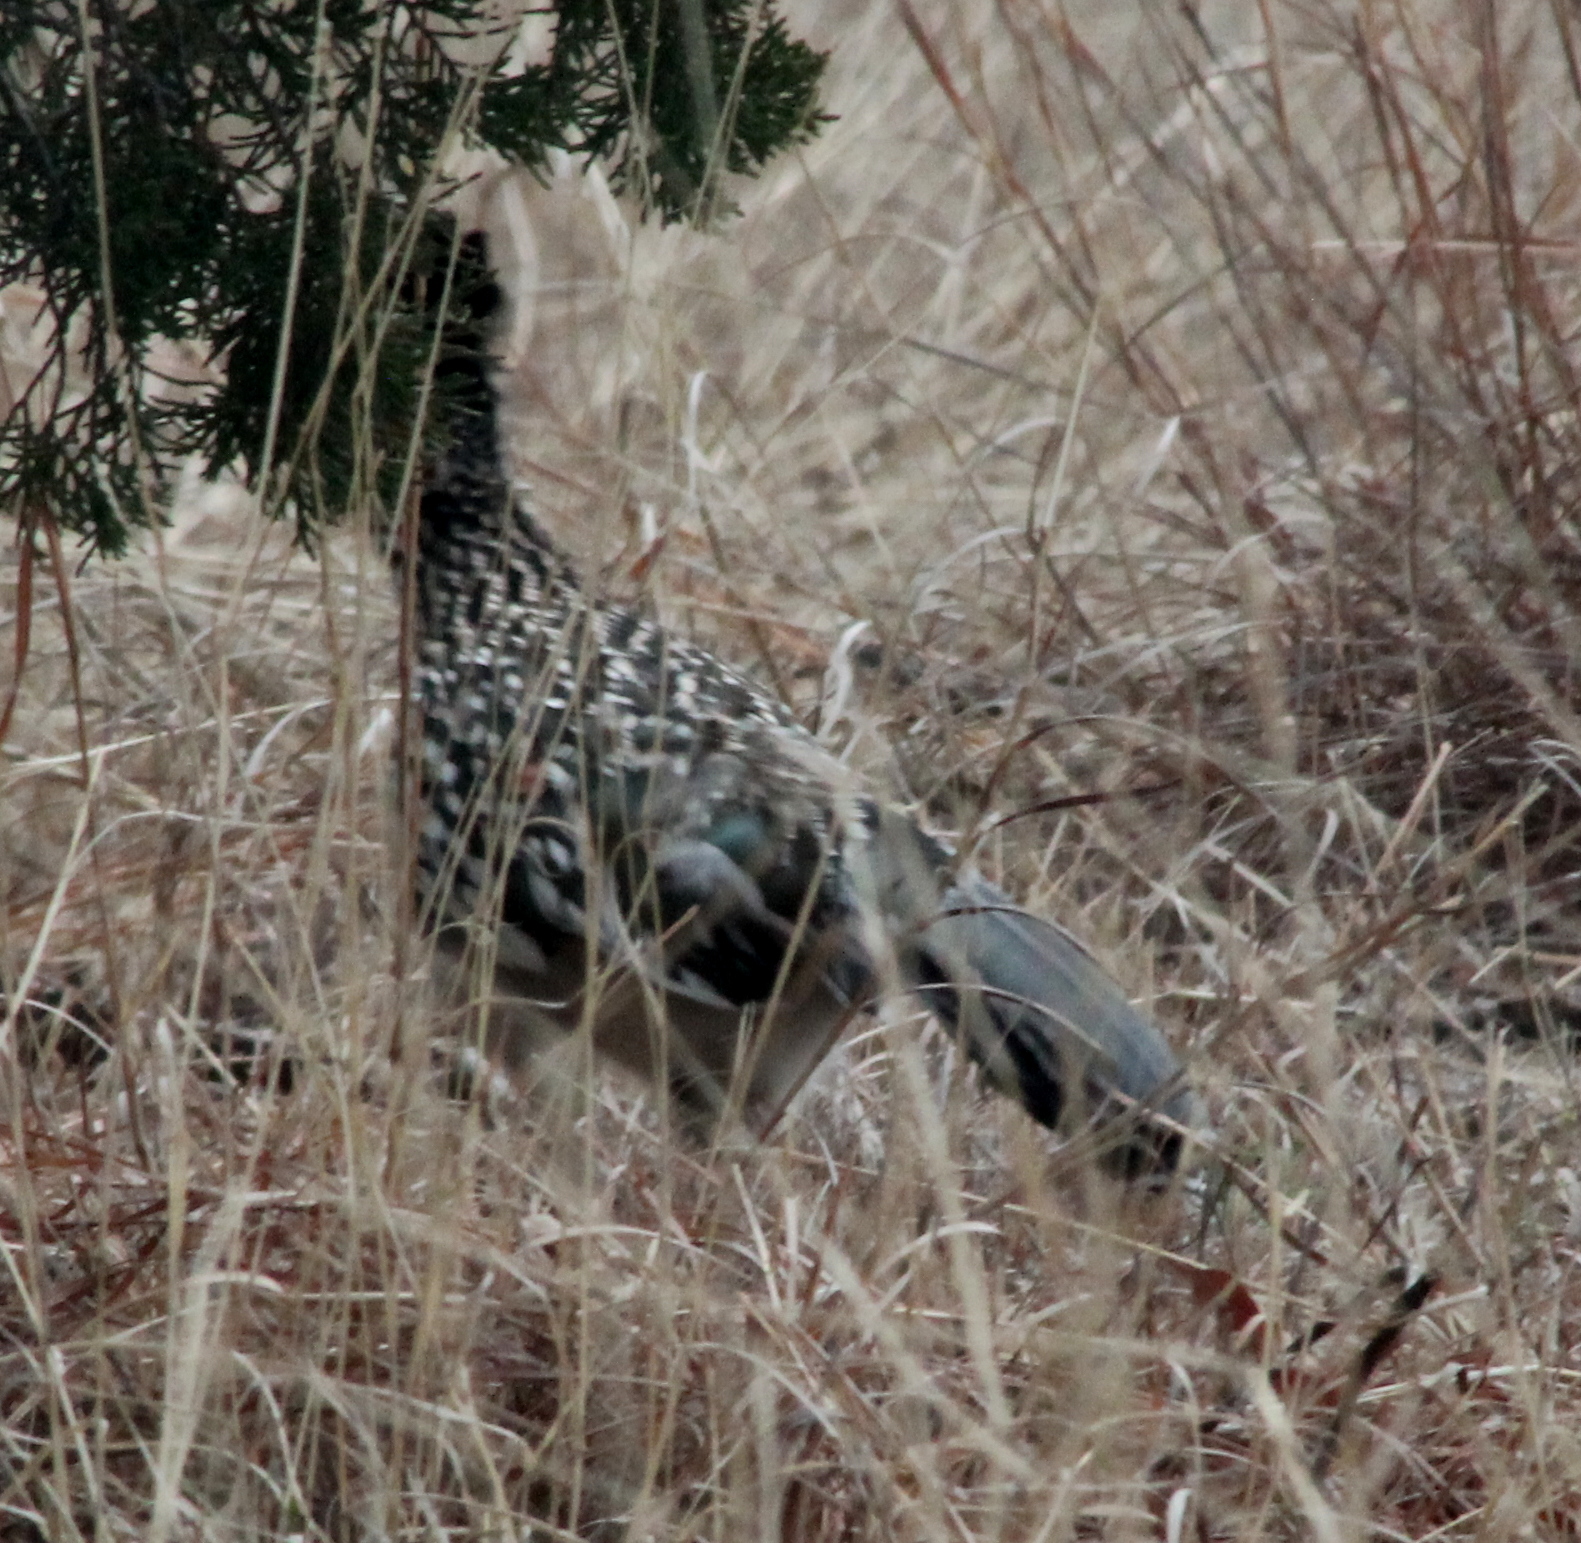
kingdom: Animalia
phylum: Chordata
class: Aves
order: Cuculiformes
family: Cuculidae
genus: Geococcyx
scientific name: Geococcyx californianus
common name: Greater roadrunner
